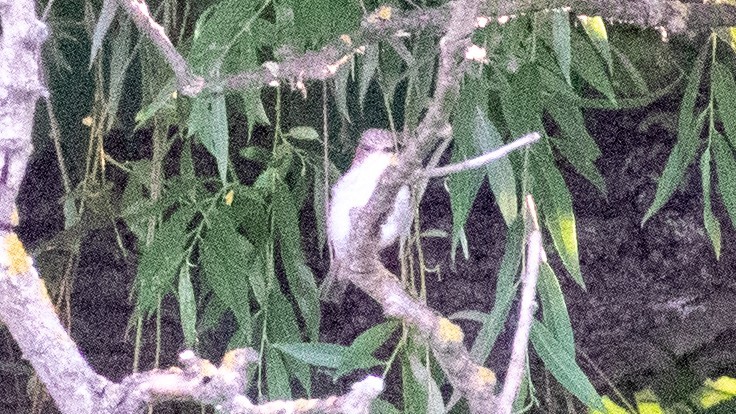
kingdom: Animalia
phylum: Chordata
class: Aves
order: Passeriformes
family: Muscicapidae
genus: Muscicapa
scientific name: Muscicapa striata
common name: Spotted flycatcher
